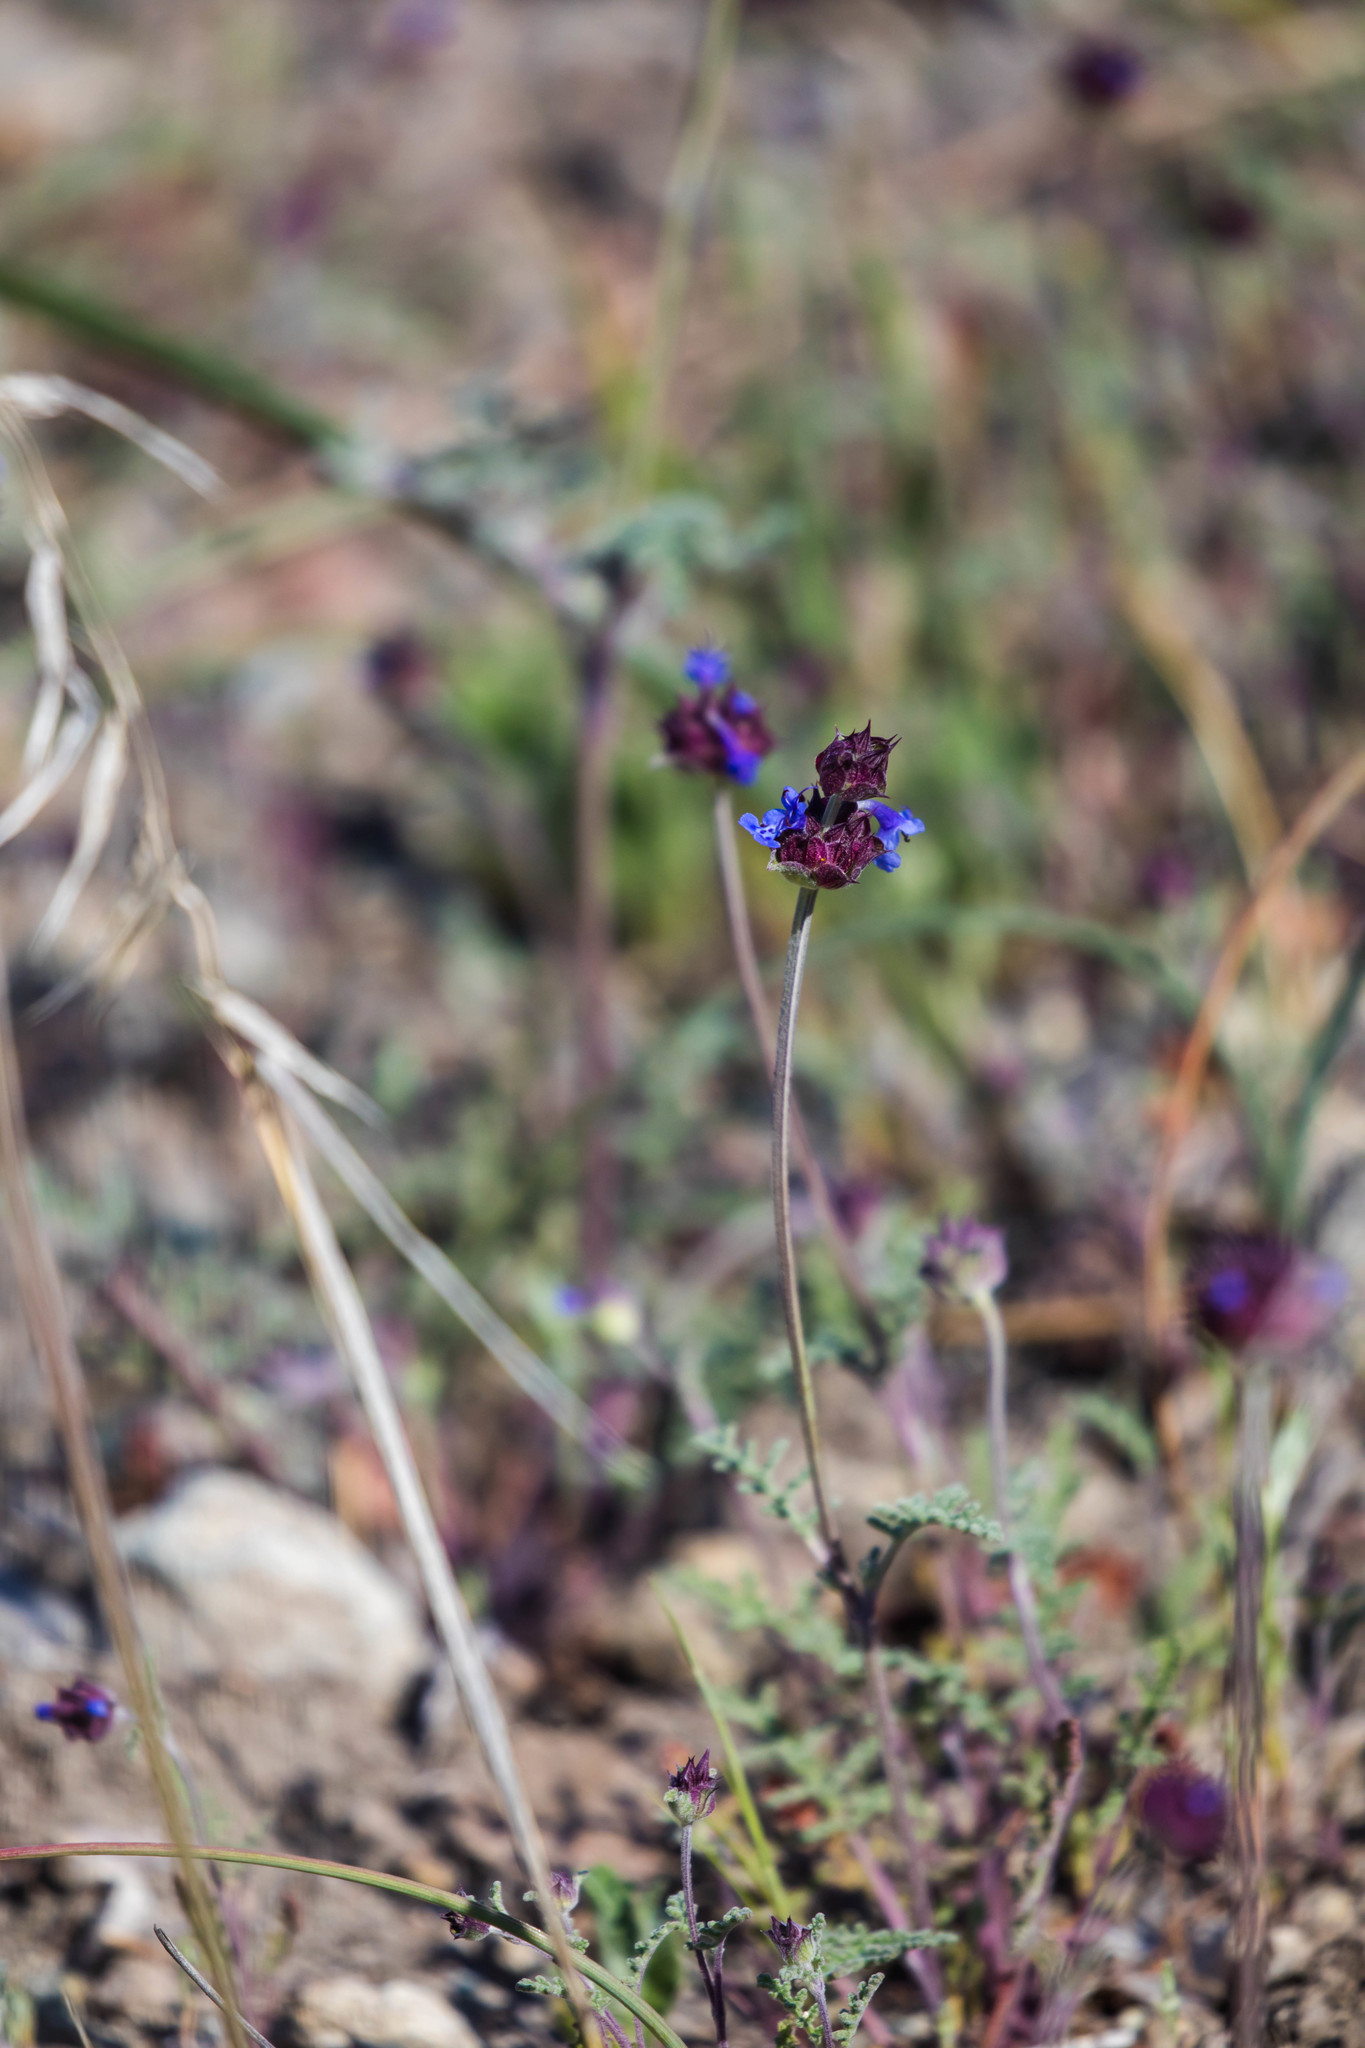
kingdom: Plantae
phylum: Tracheophyta
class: Magnoliopsida
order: Lamiales
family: Lamiaceae
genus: Salvia
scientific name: Salvia columbariae
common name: Chia
